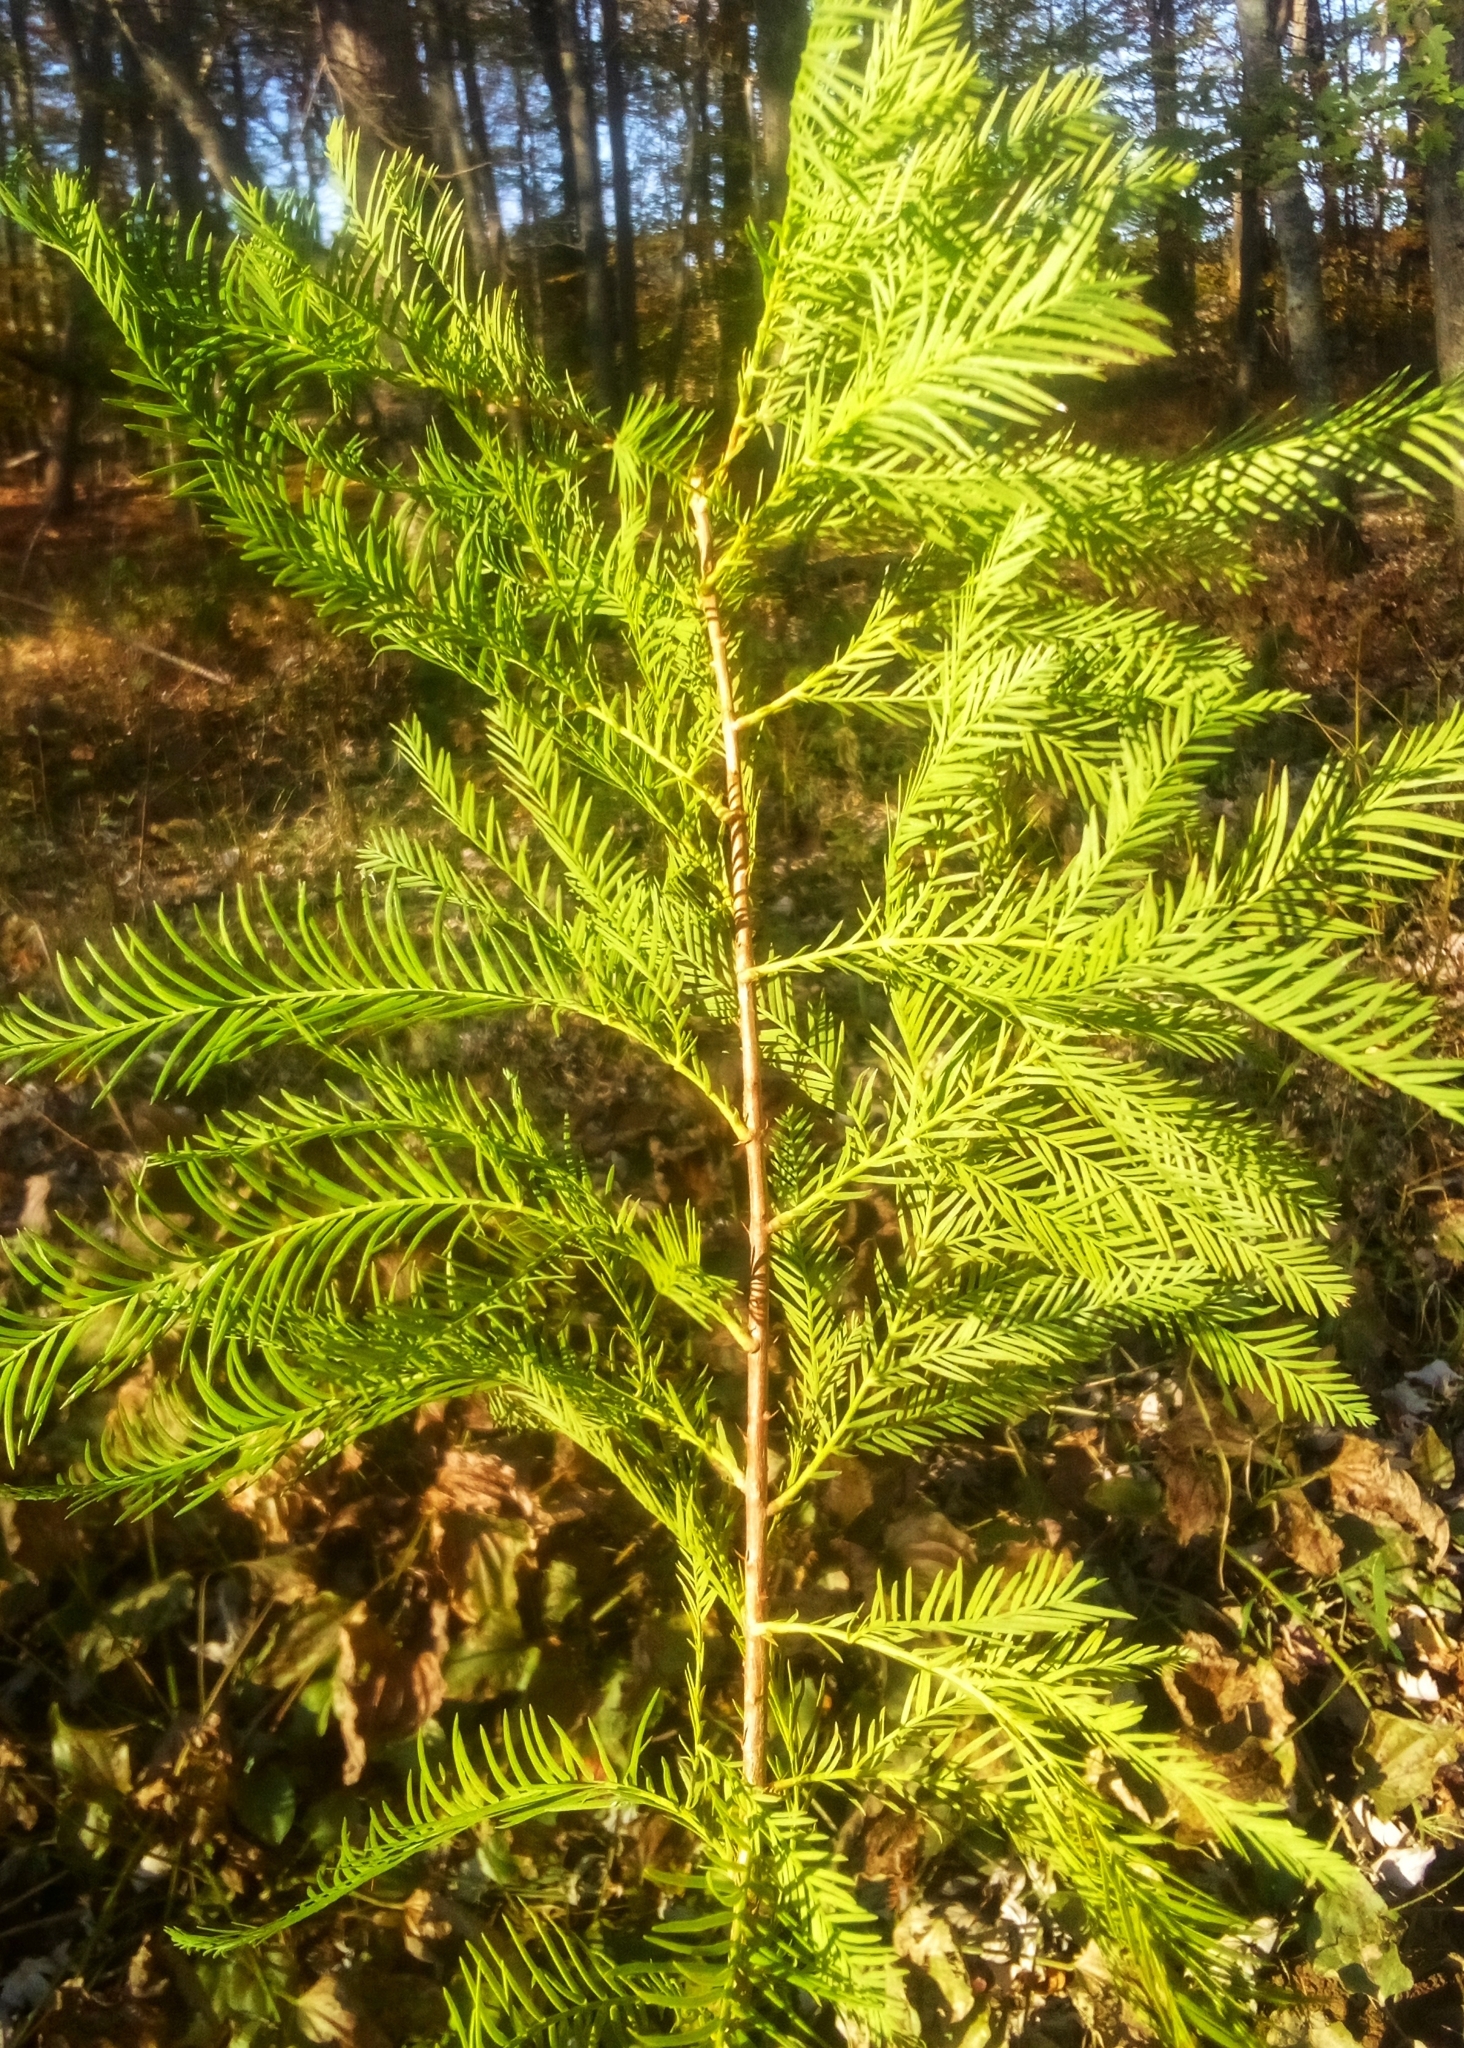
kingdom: Plantae
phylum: Tracheophyta
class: Pinopsida
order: Pinales
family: Cupressaceae
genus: Taxodium
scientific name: Taxodium distichum
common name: Bald cypress
